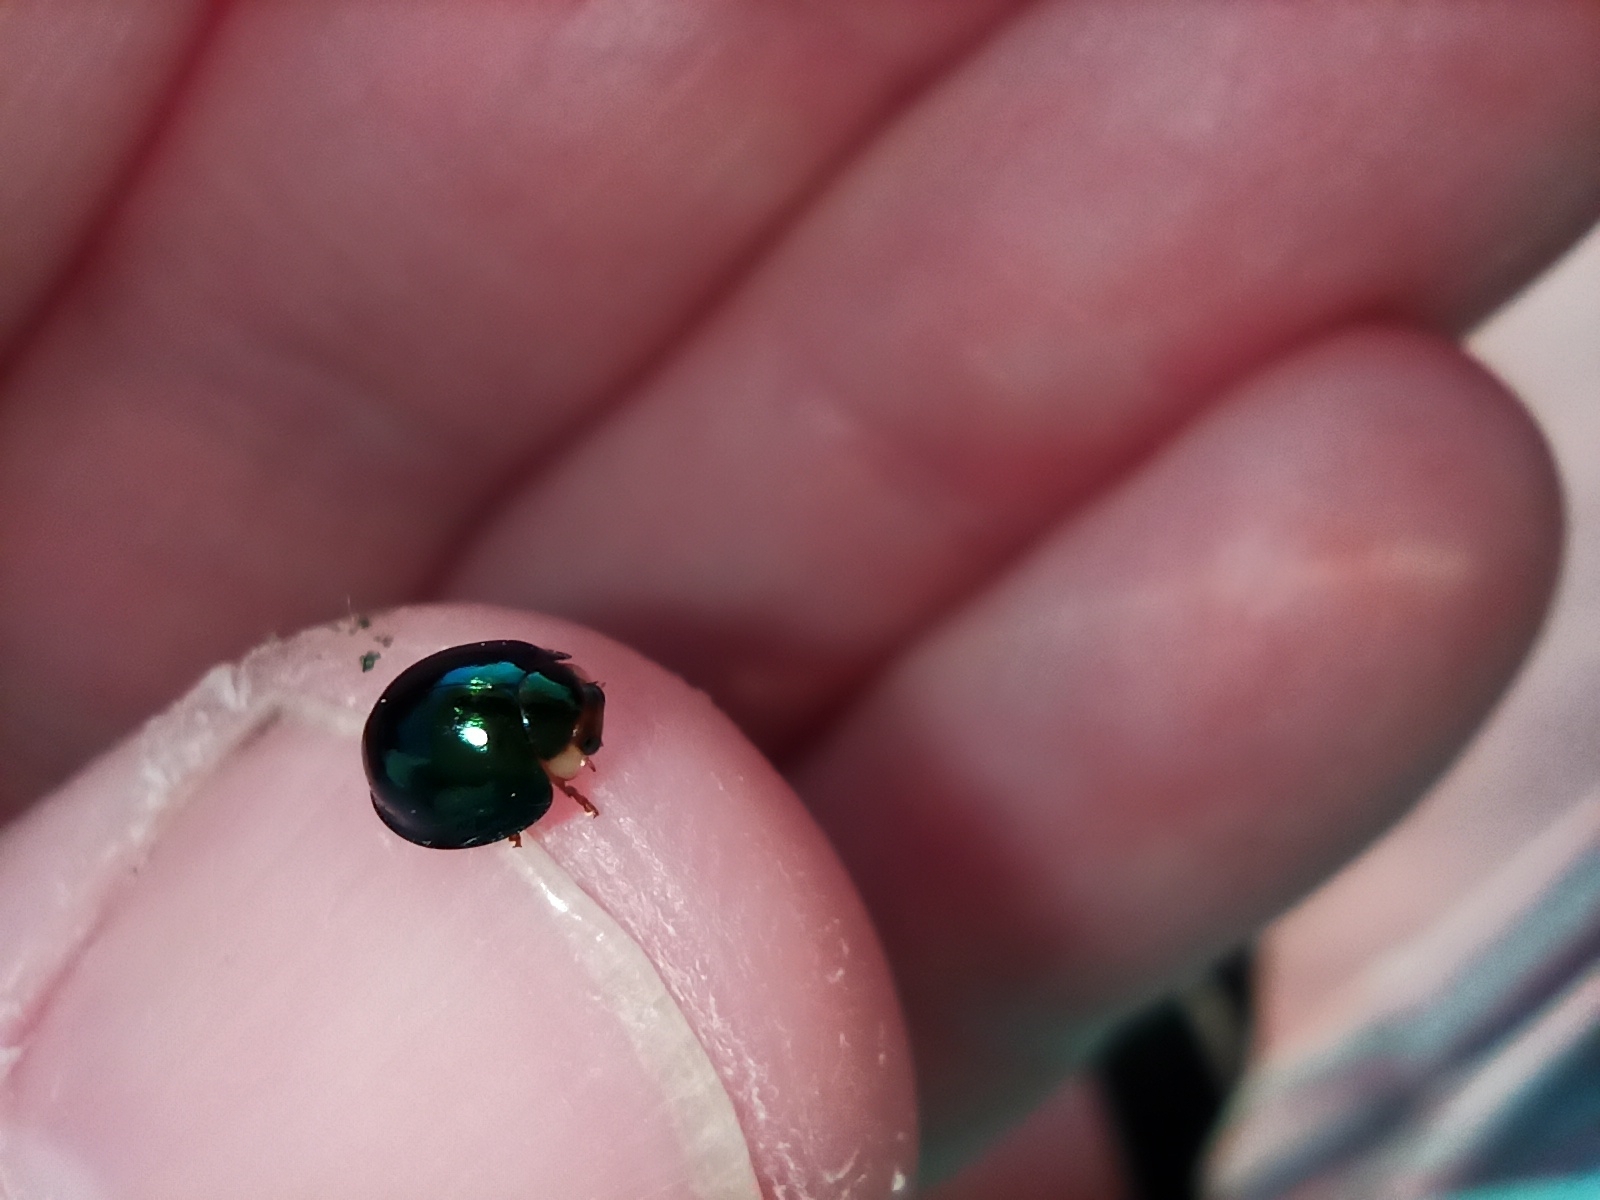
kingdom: Animalia
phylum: Arthropoda
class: Insecta
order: Coleoptera
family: Coccinellidae
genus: Halmus
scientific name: Halmus chalybeus
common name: Steel blue ladybird beetle
